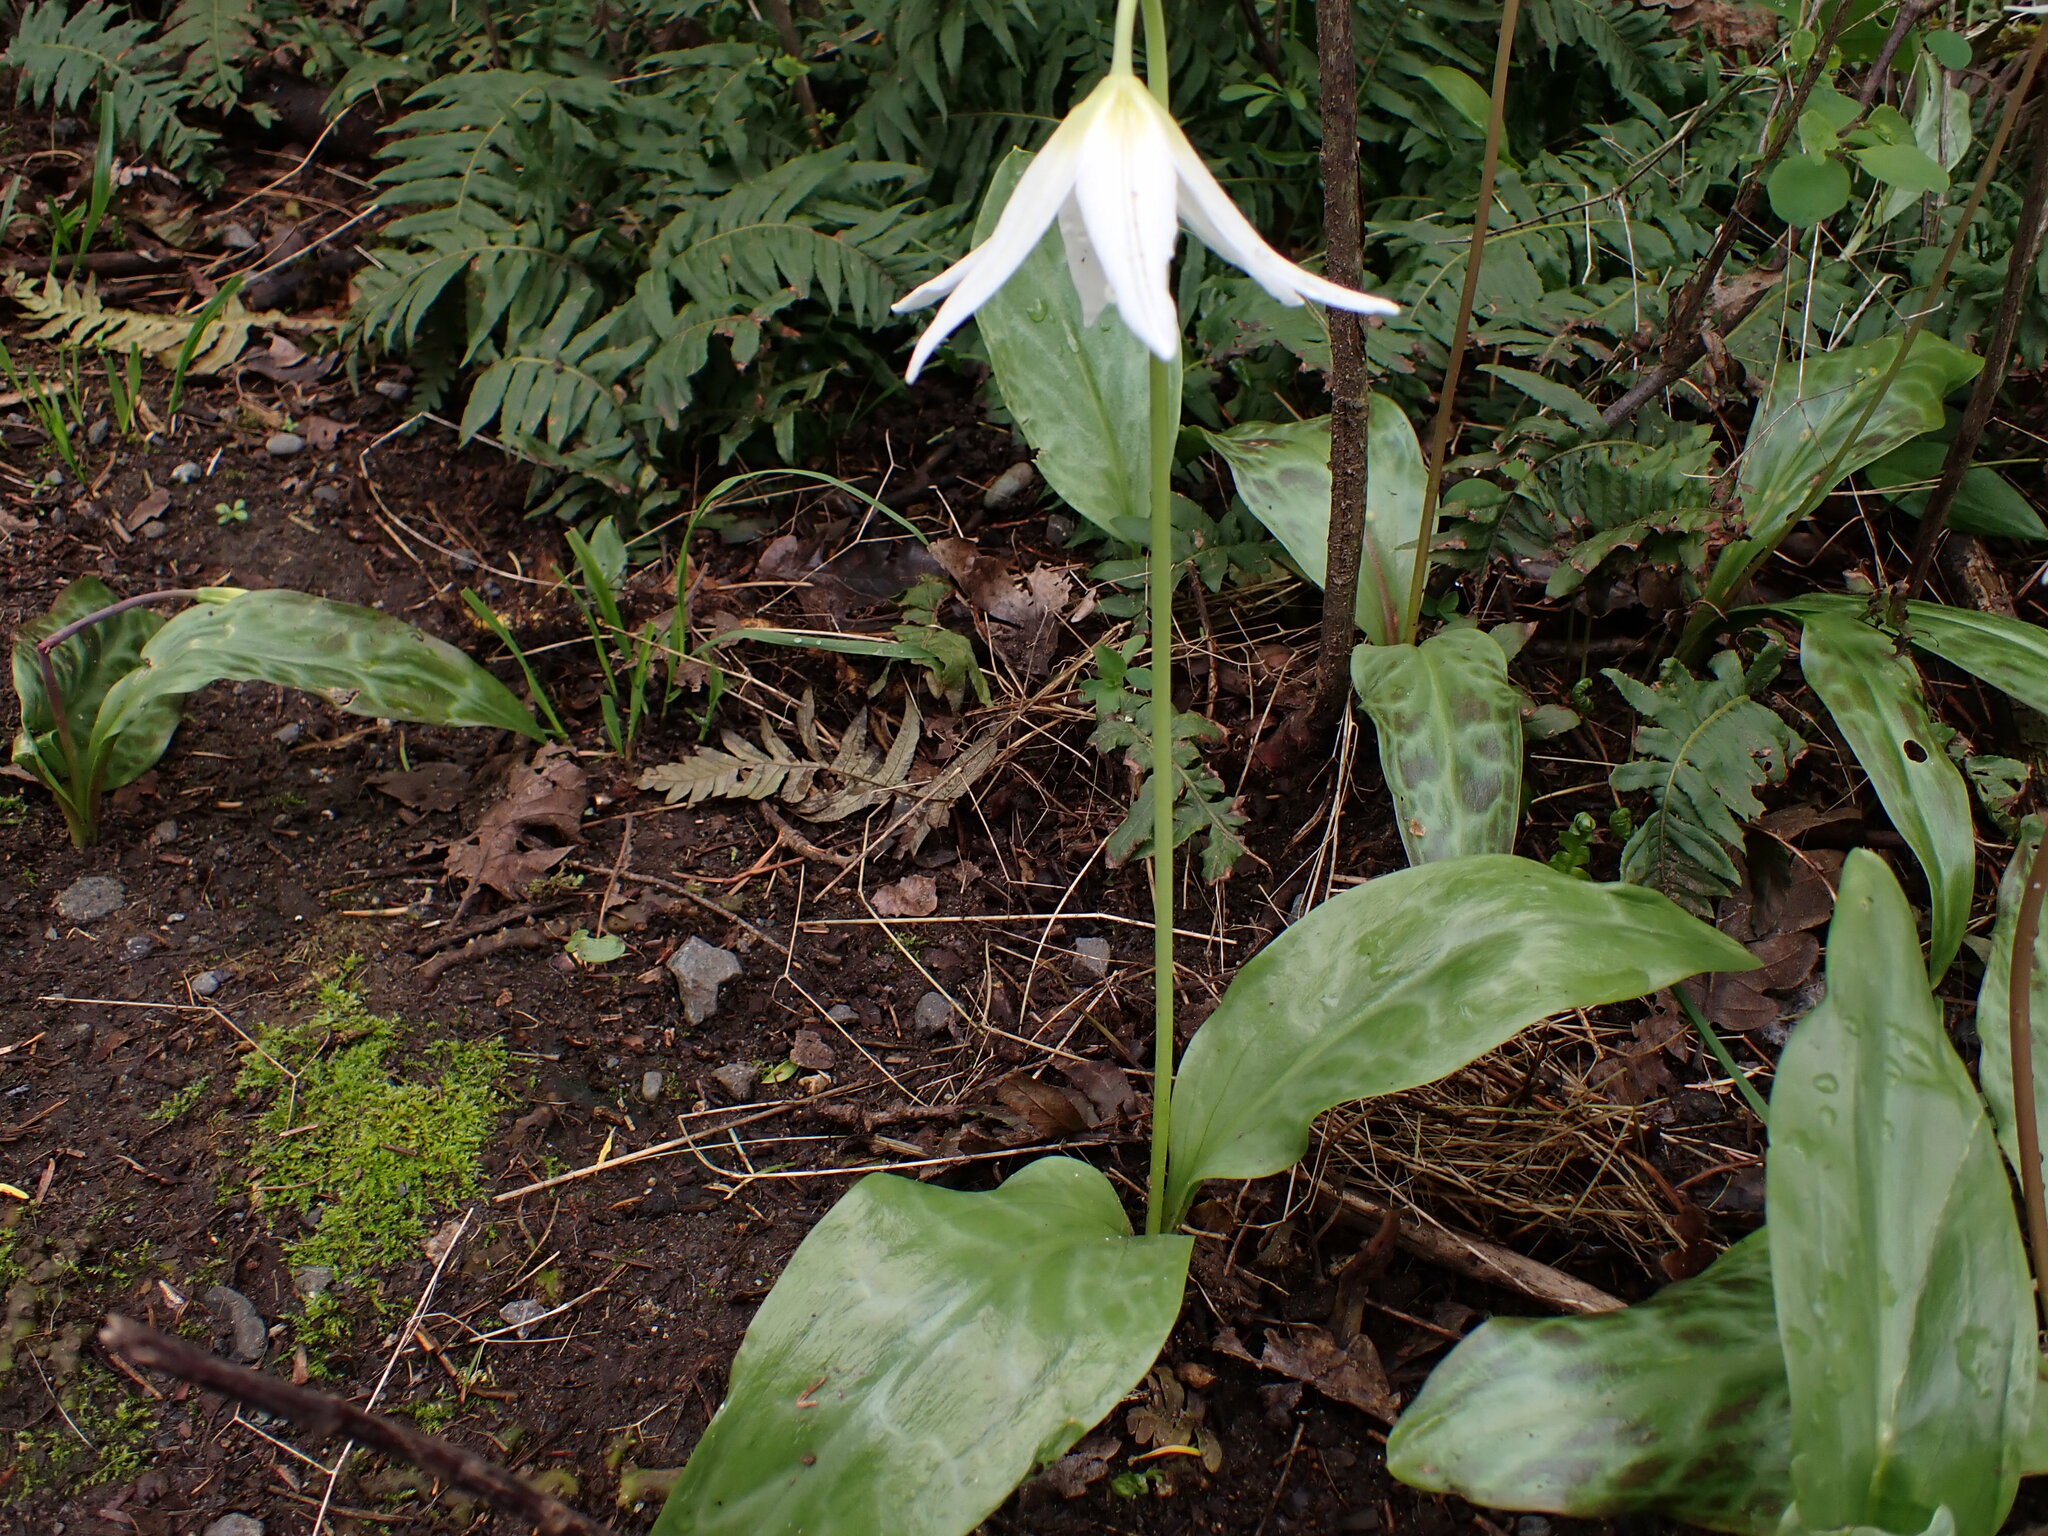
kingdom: Plantae
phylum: Tracheophyta
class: Liliopsida
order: Liliales
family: Liliaceae
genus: Erythronium
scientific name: Erythronium oregonum
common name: Giant adder's-tongue
